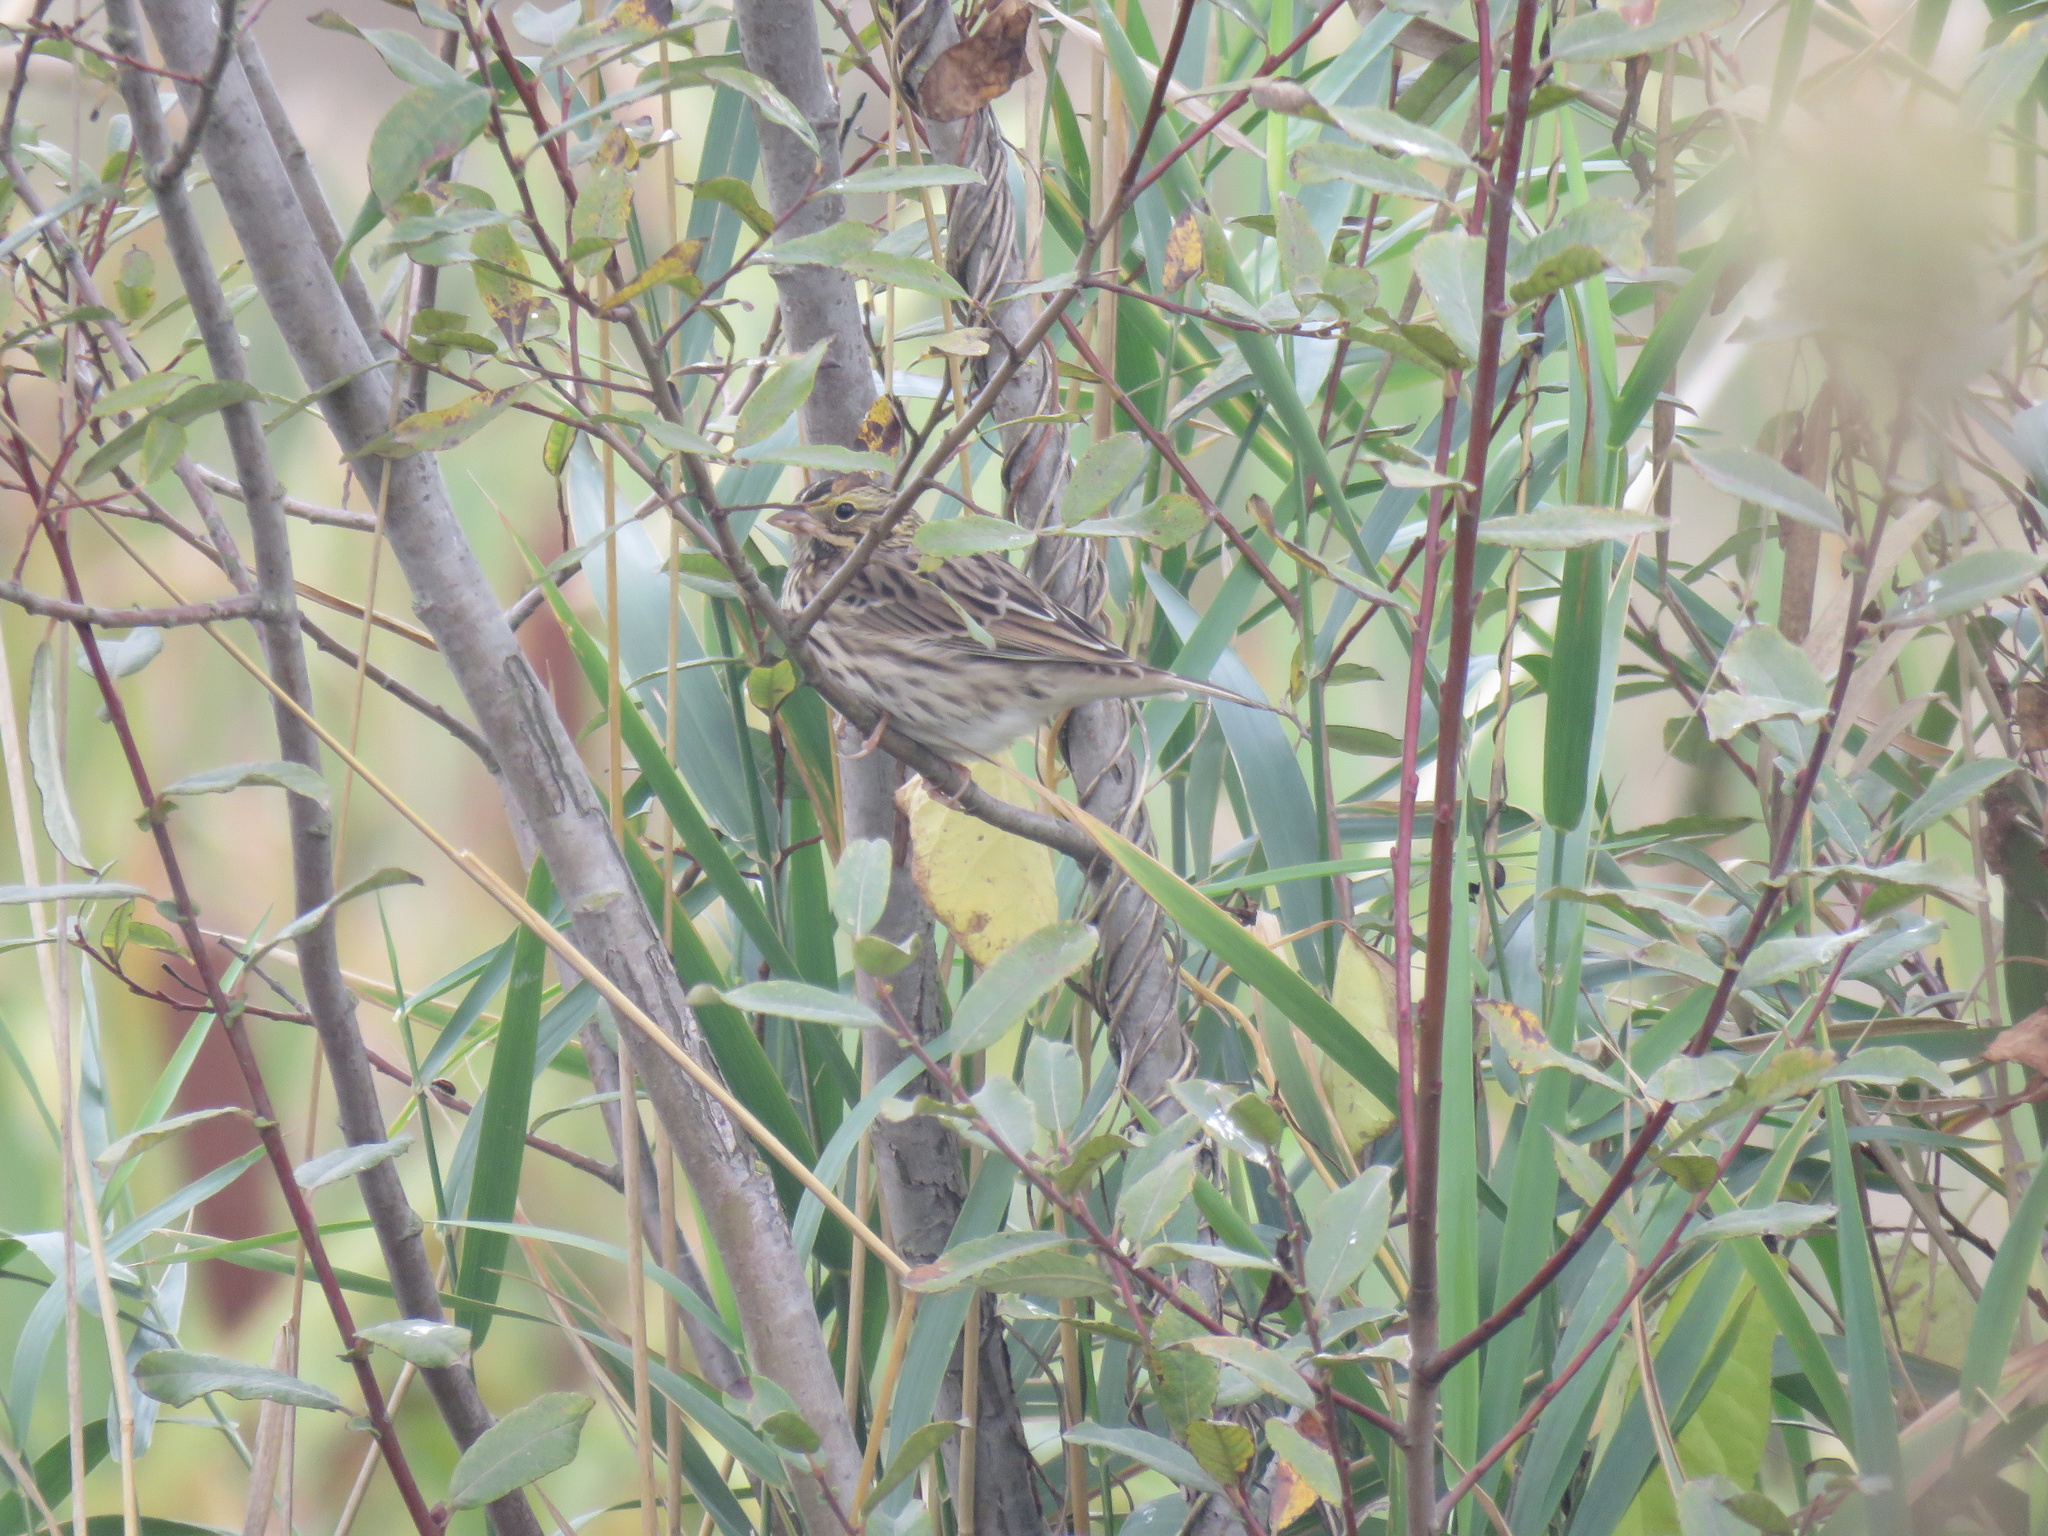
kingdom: Animalia
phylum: Chordata
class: Aves
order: Passeriformes
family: Passerellidae
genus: Passerculus
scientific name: Passerculus sandwichensis
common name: Savannah sparrow
